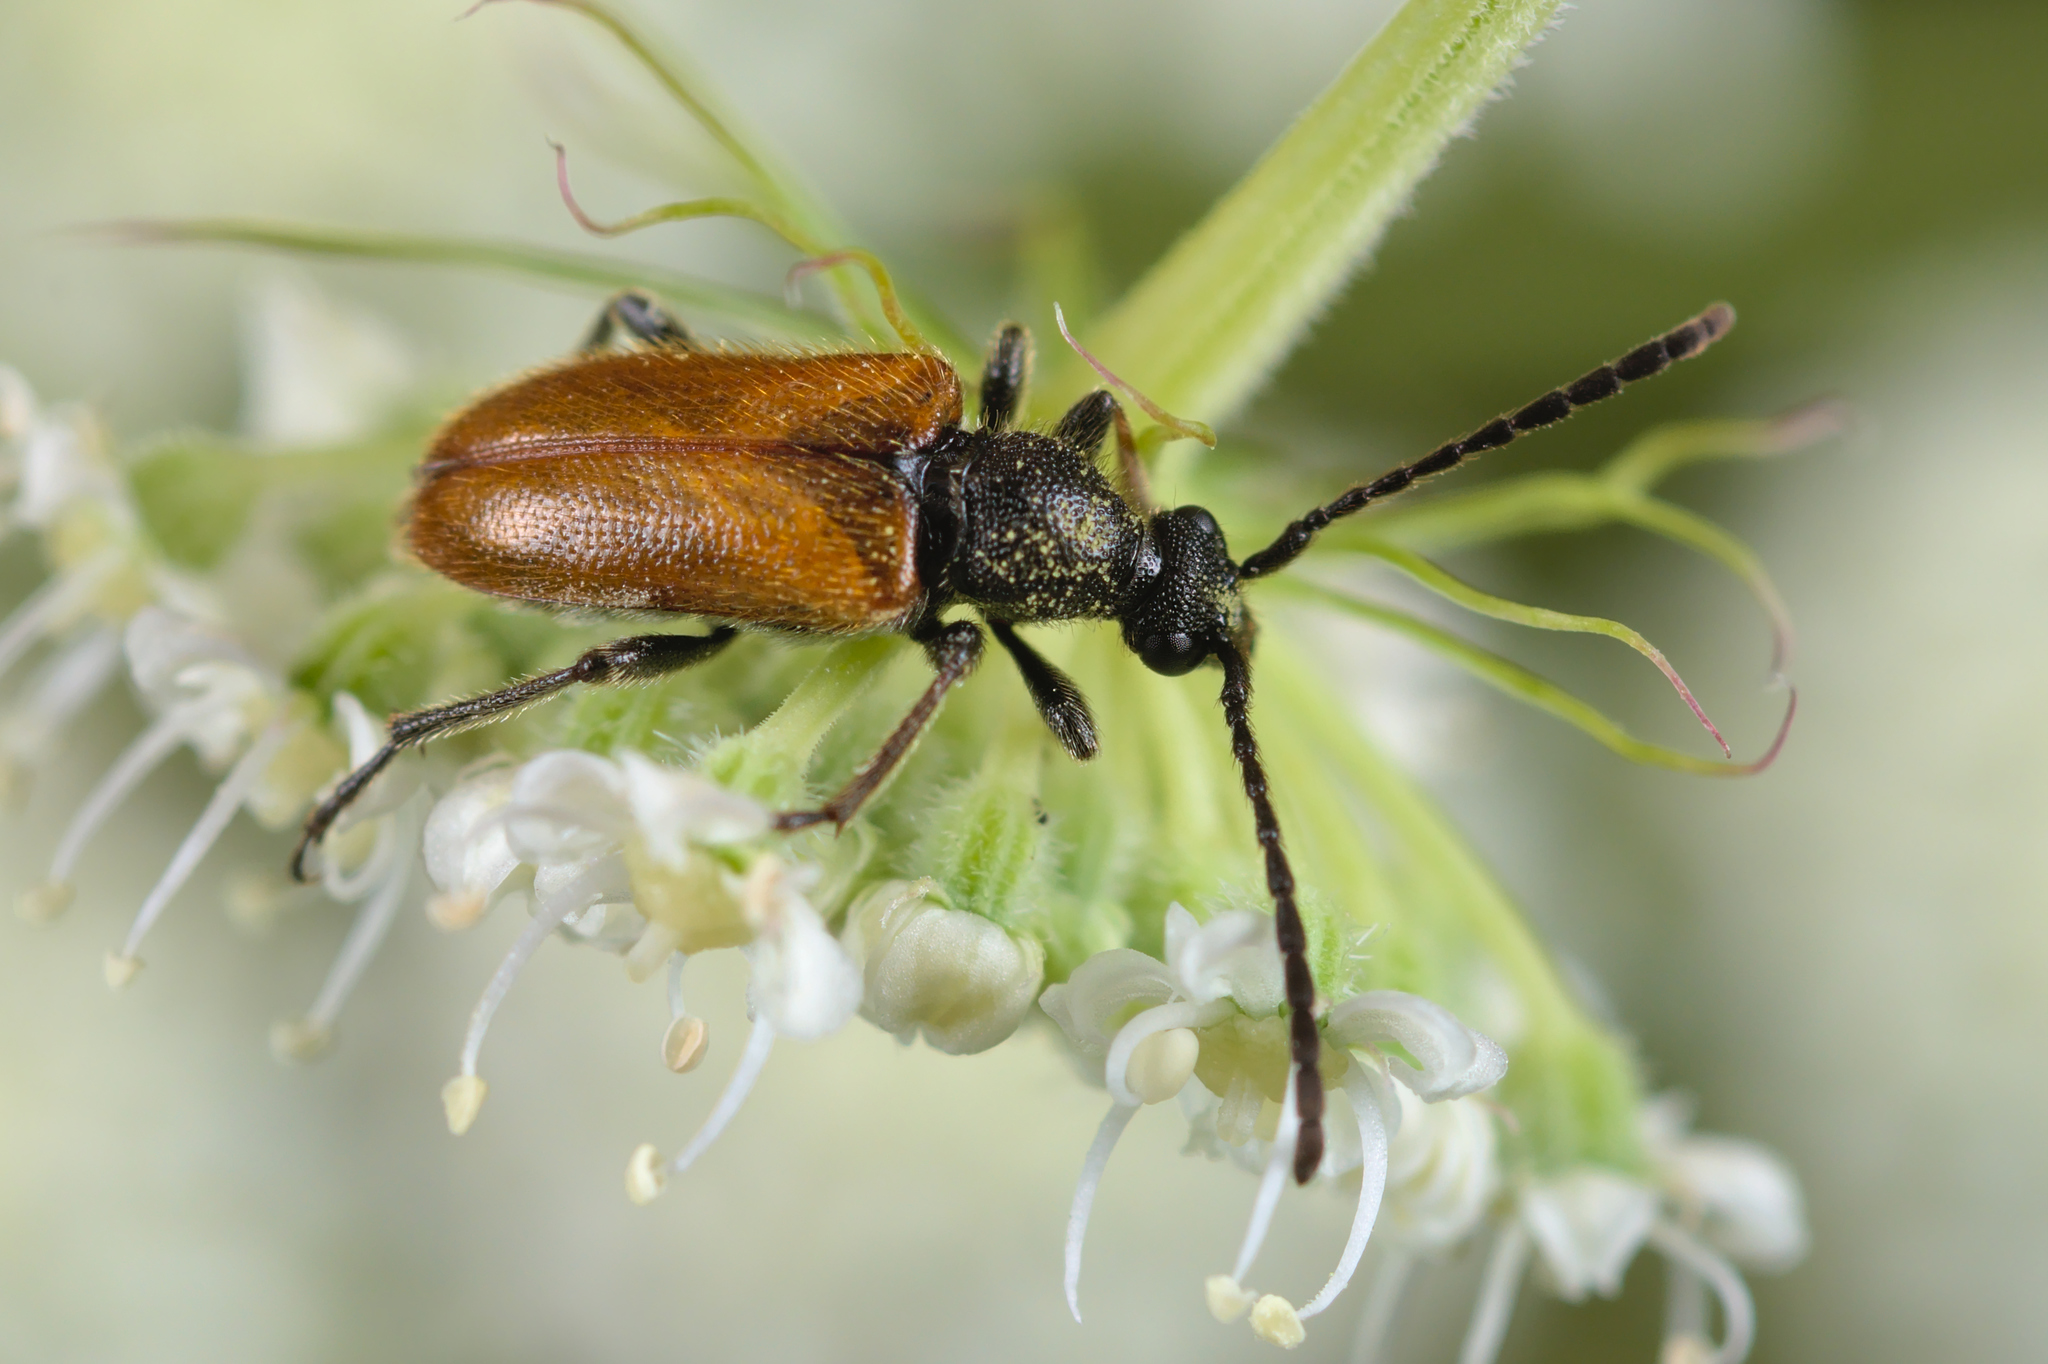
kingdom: Animalia
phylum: Arthropoda
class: Insecta
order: Coleoptera
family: Cerambycidae
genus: Pseudovadonia
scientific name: Pseudovadonia livida
